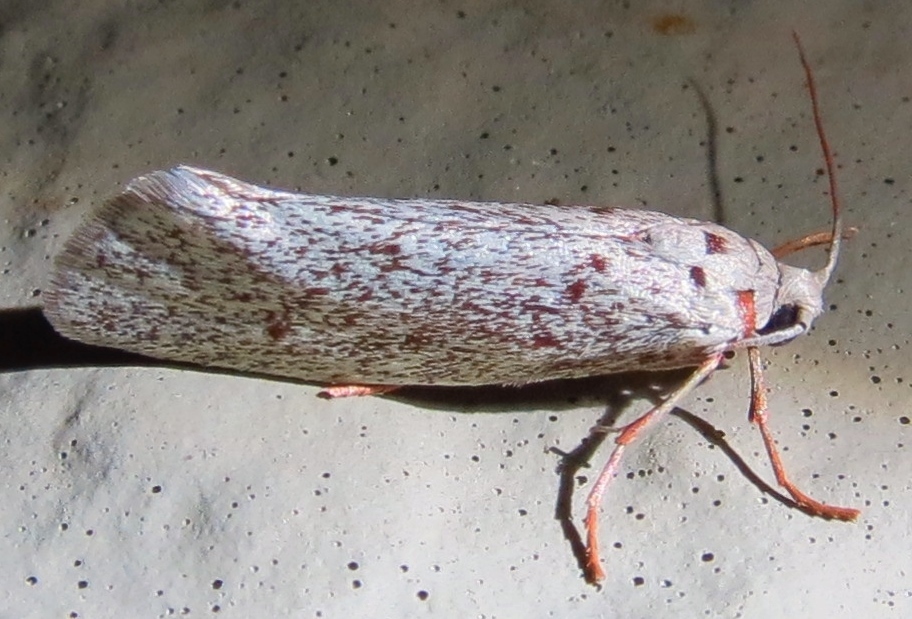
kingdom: Animalia
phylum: Arthropoda
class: Insecta
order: Lepidoptera
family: Lacturidae
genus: Lactura
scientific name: Lactura
